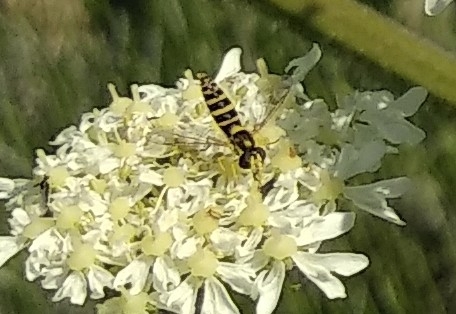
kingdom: Animalia
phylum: Arthropoda
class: Insecta
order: Diptera
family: Syrphidae
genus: Sphaerophoria
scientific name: Sphaerophoria
